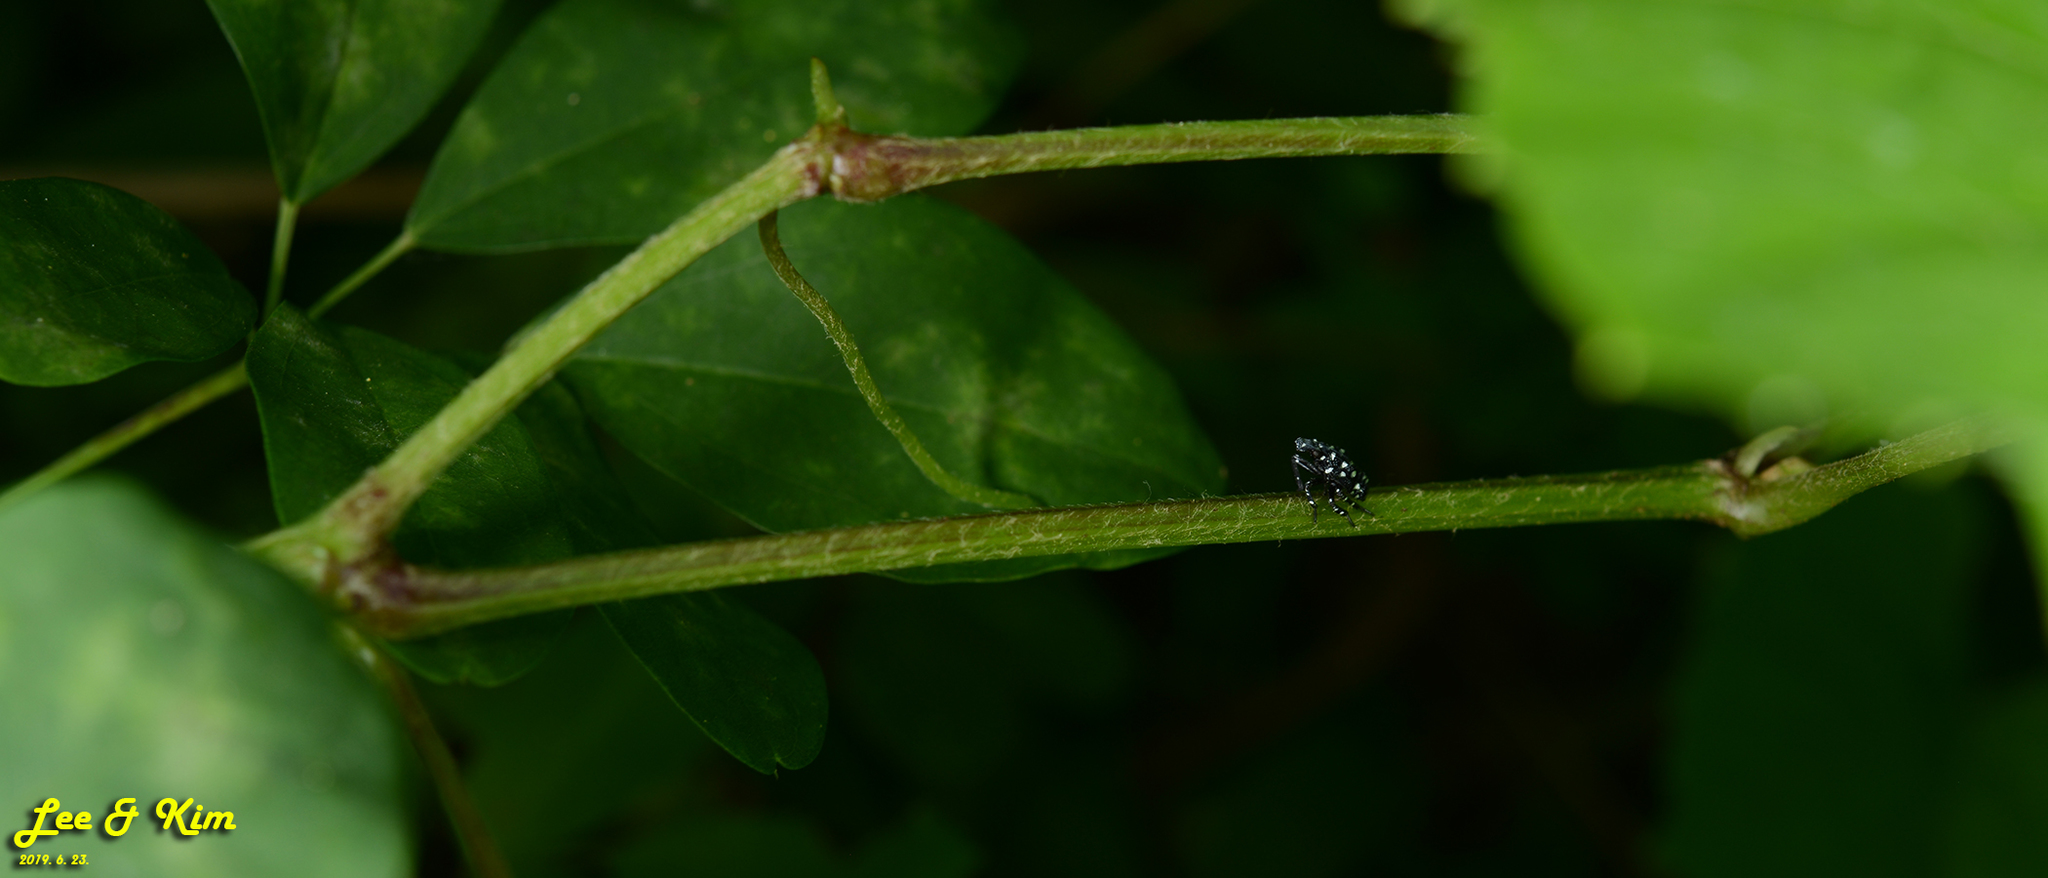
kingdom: Animalia
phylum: Arthropoda
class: Insecta
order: Hemiptera
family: Fulgoridae
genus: Lycorma
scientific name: Lycorma delicatula
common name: Spotted lanternfly
